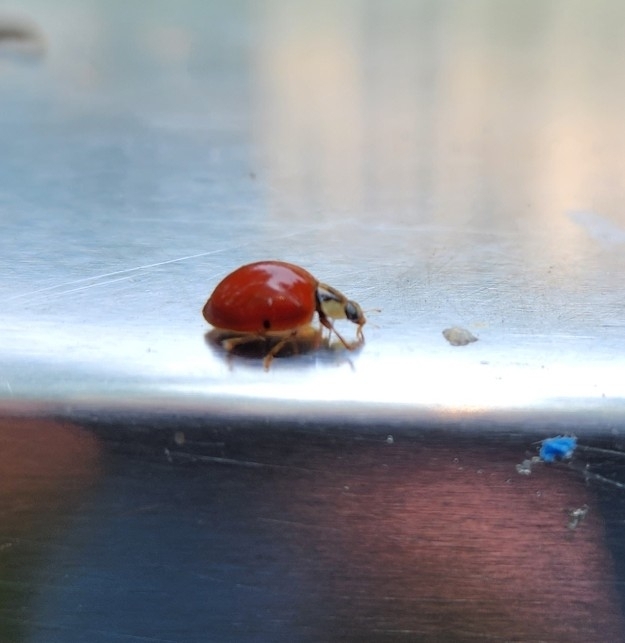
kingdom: Animalia
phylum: Arthropoda
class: Insecta
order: Coleoptera
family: Coccinellidae
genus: Harmonia
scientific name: Harmonia axyridis
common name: Harlequin ladybird
